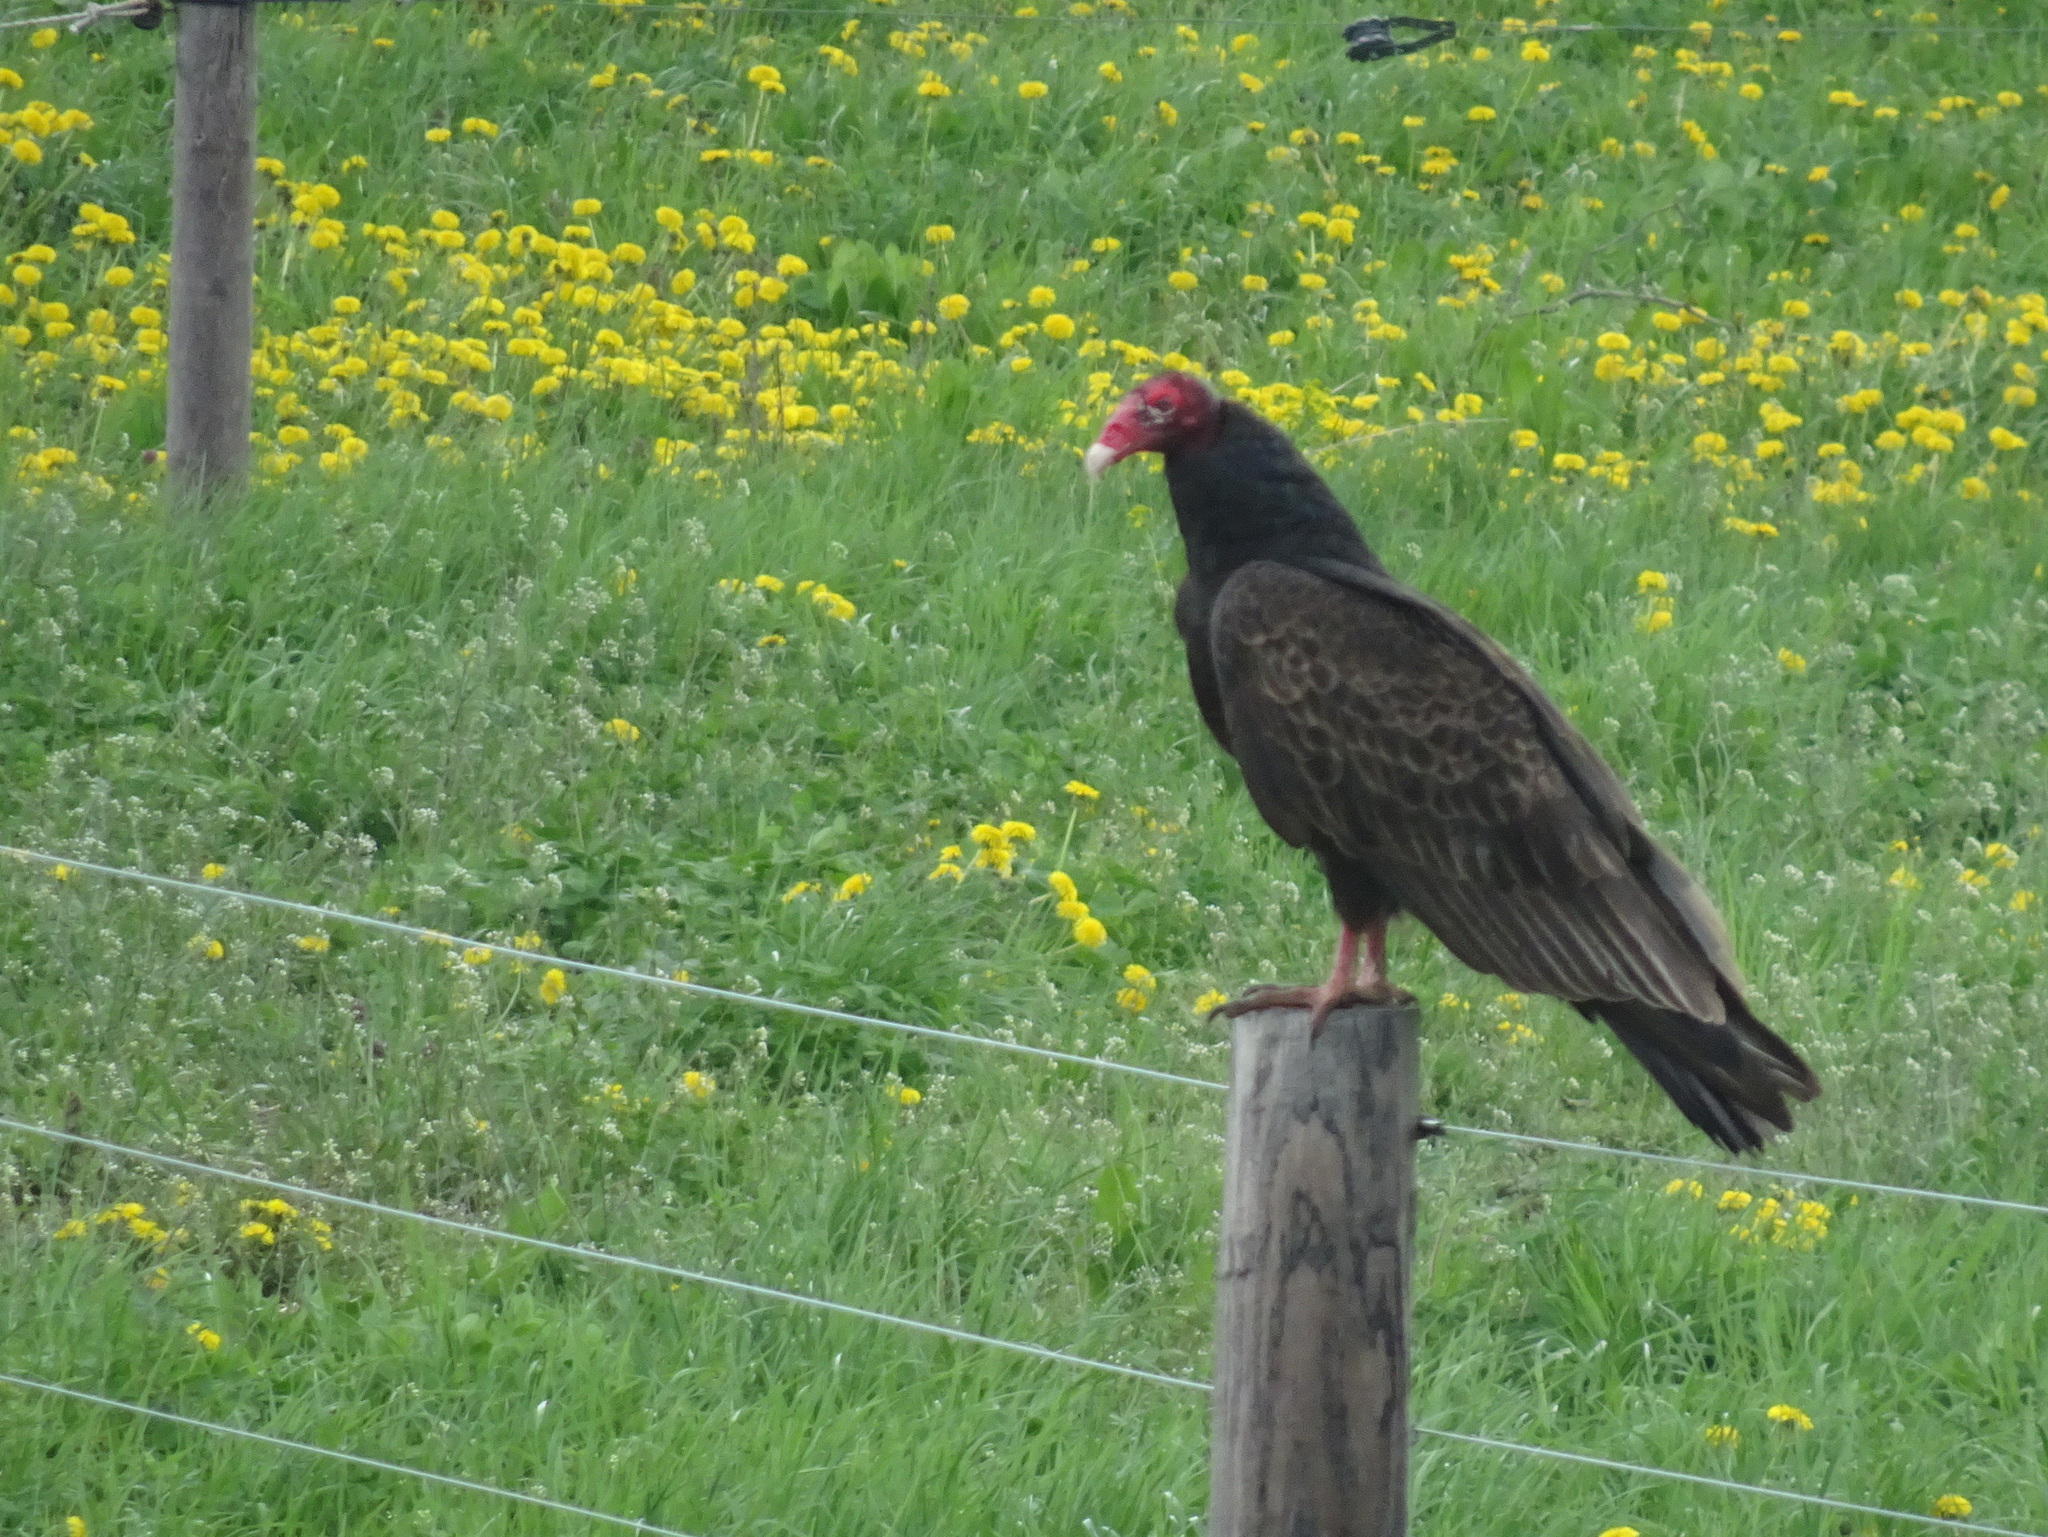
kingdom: Animalia
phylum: Chordata
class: Aves
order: Accipitriformes
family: Cathartidae
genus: Cathartes
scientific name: Cathartes aura
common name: Turkey vulture
